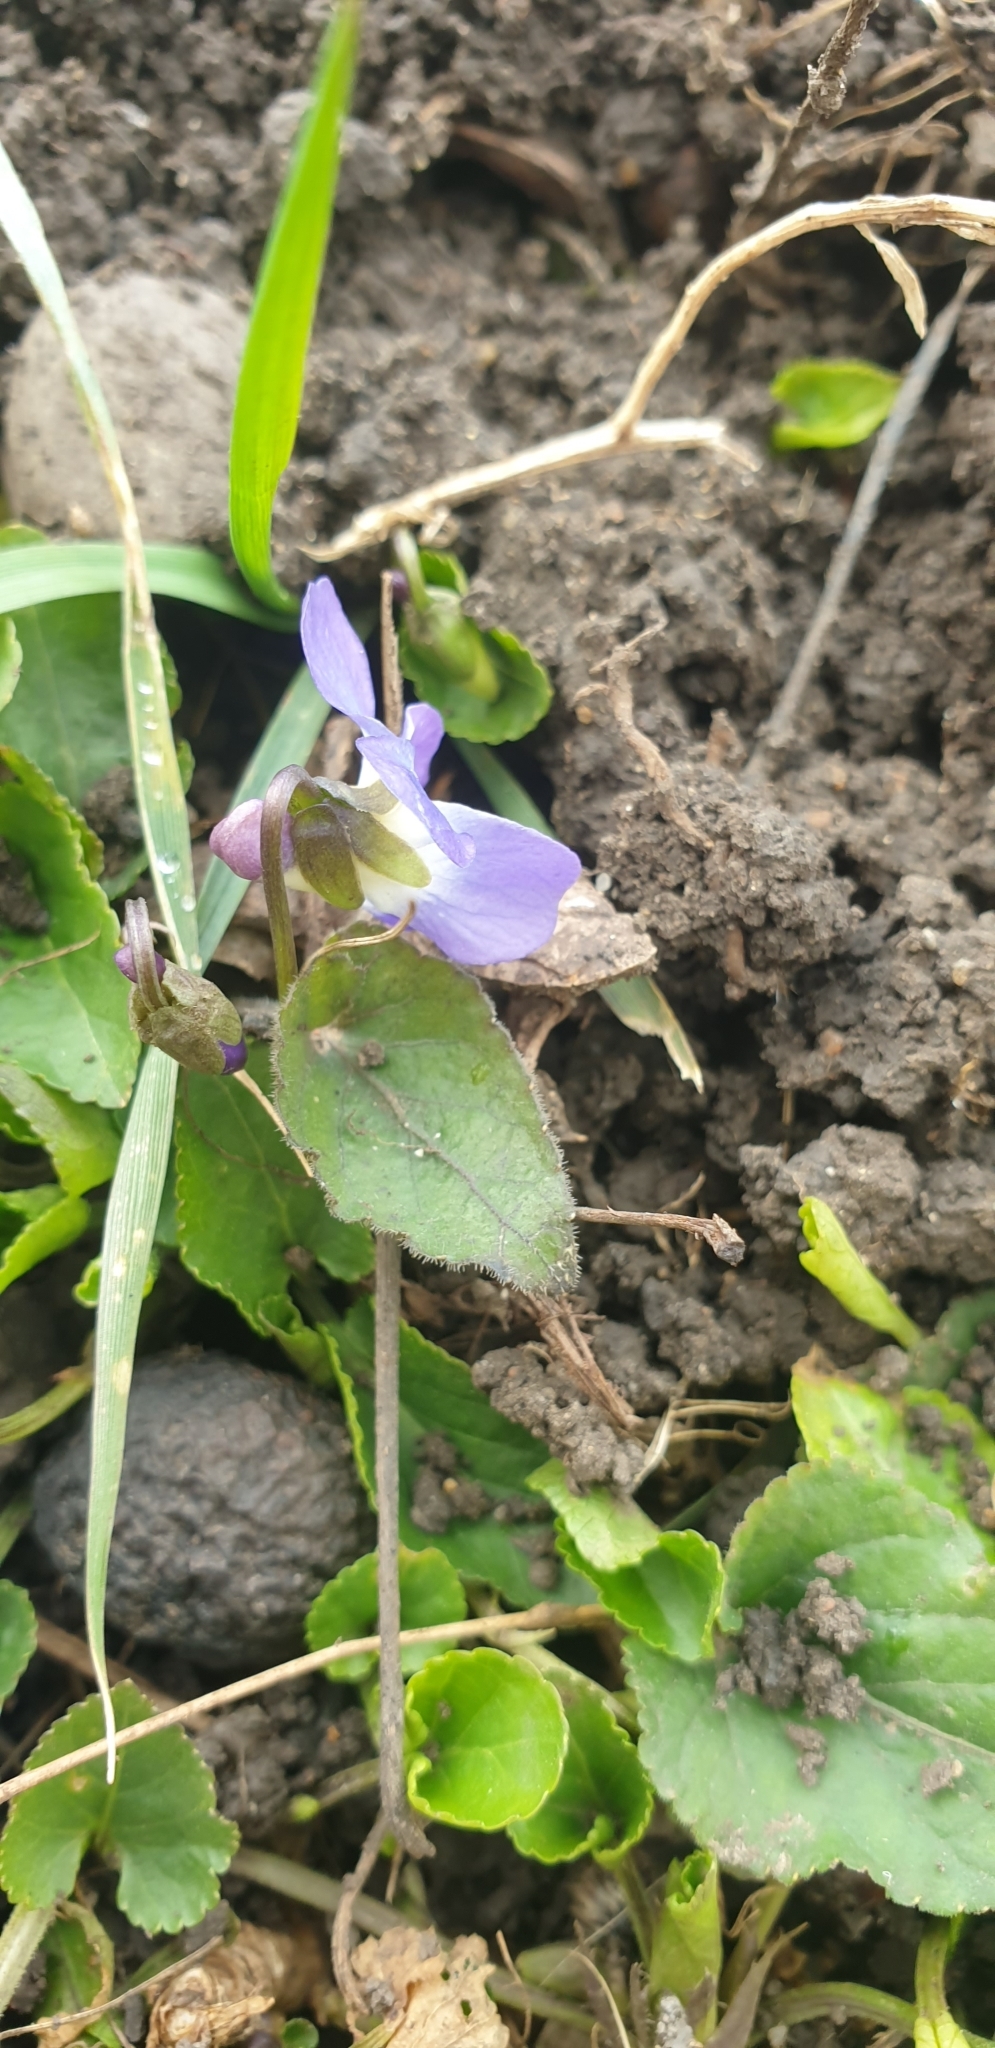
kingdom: Plantae
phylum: Tracheophyta
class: Magnoliopsida
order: Malpighiales
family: Violaceae
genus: Viola
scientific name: Viola suavis
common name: Russian violet
